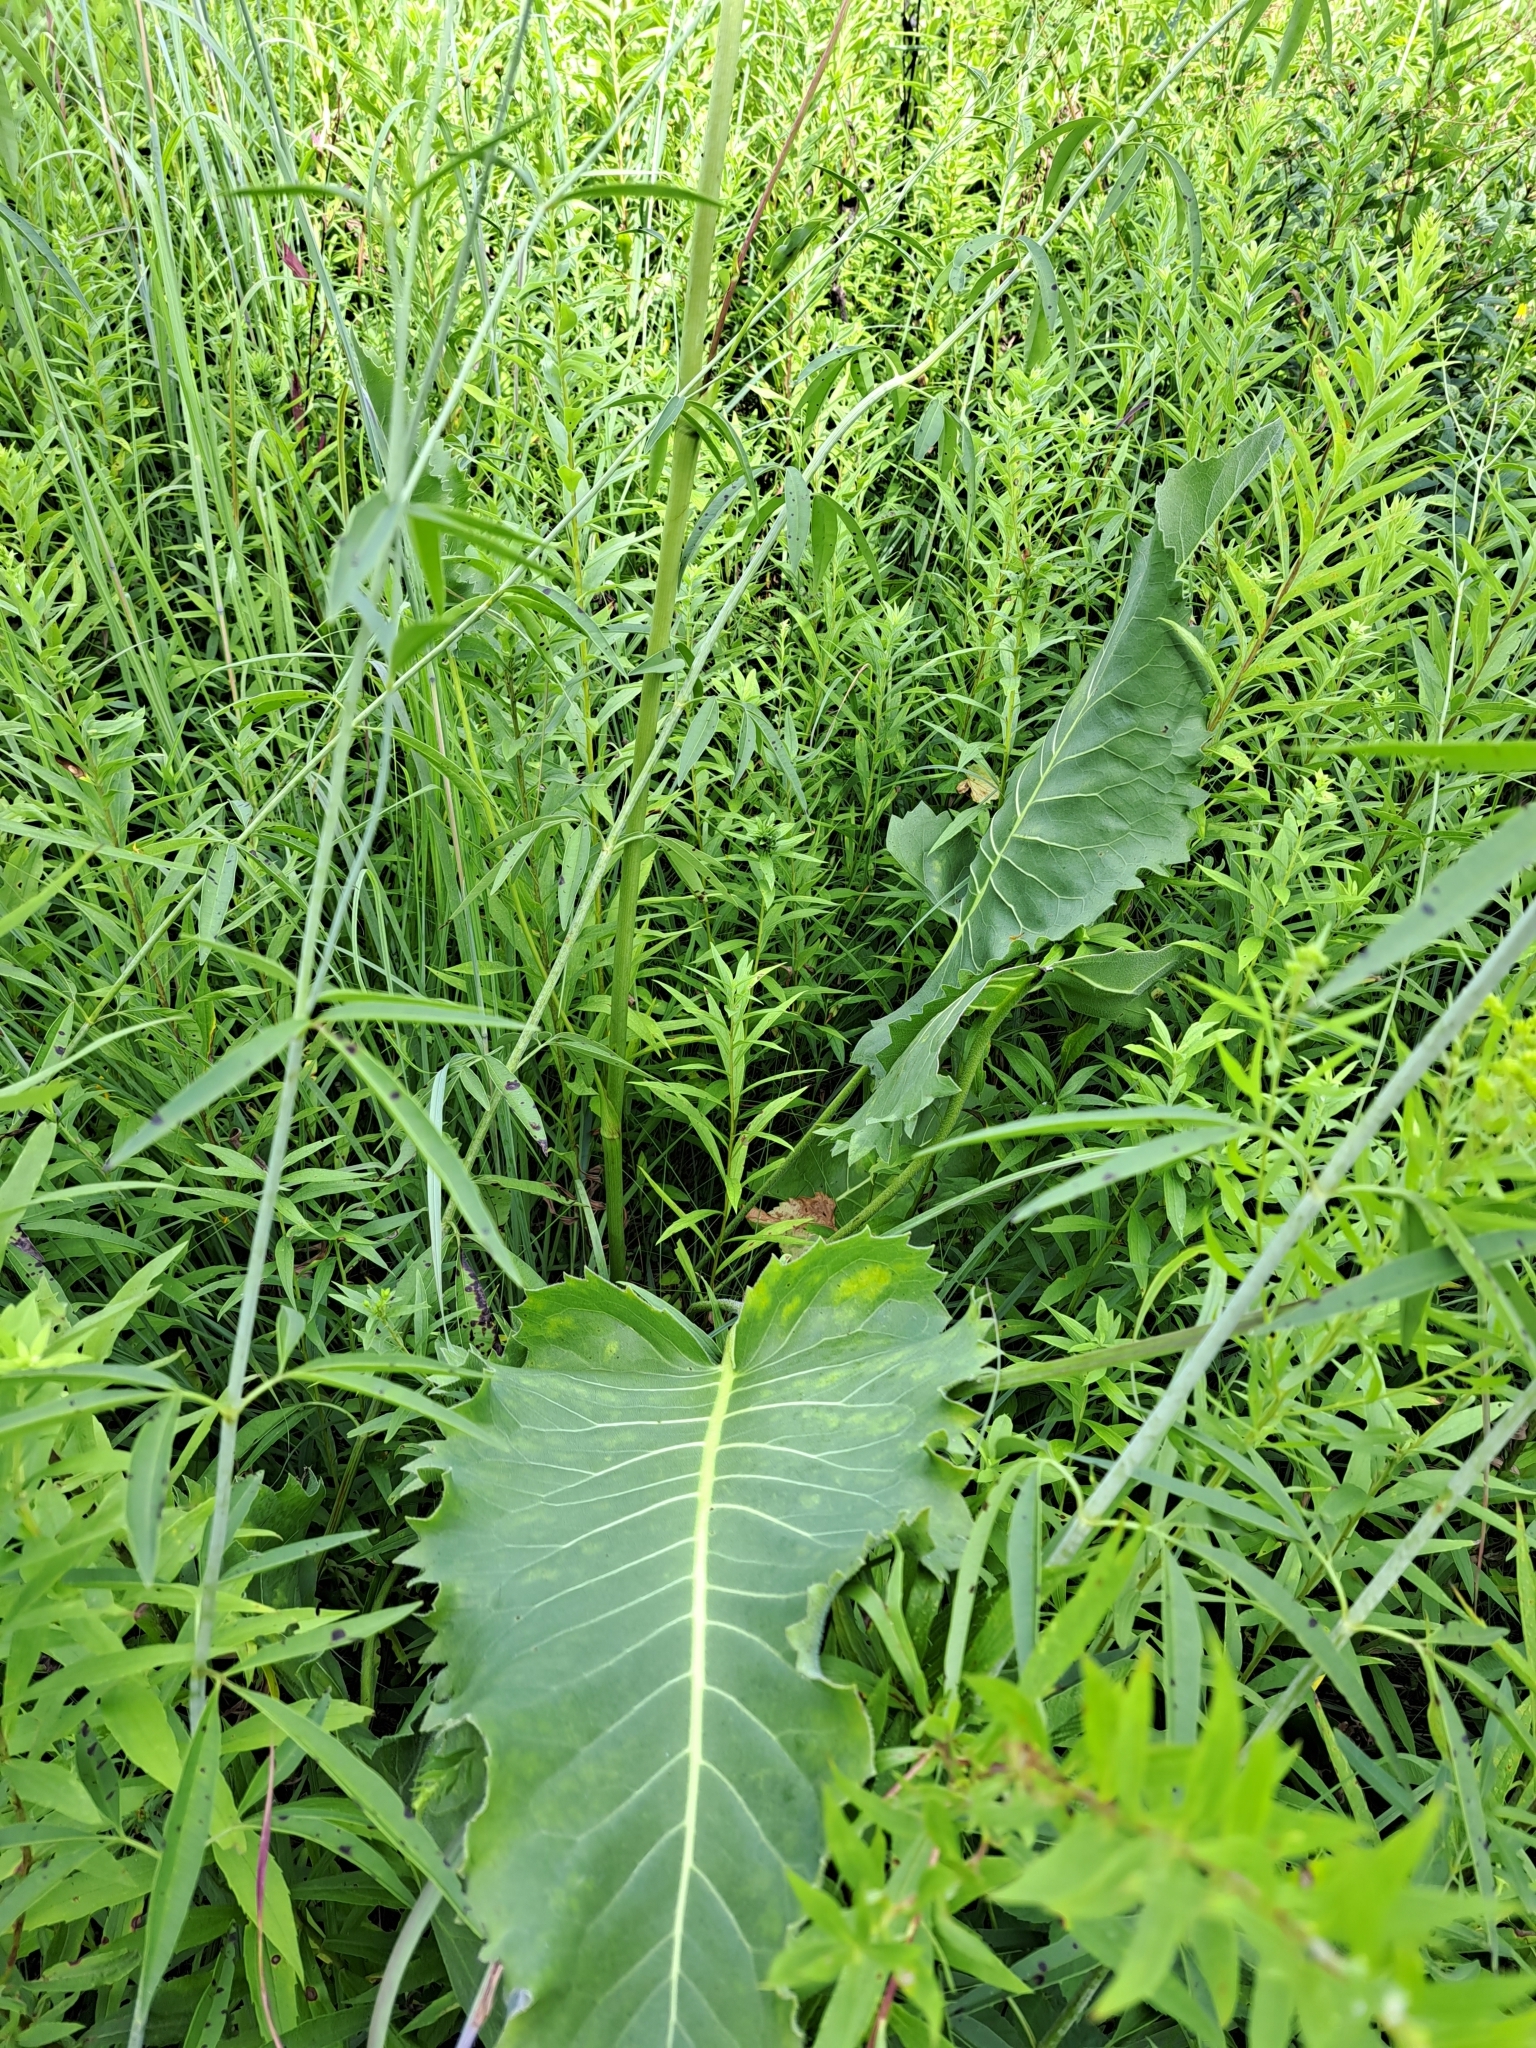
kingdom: Plantae
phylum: Tracheophyta
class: Magnoliopsida
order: Asterales
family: Asteraceae
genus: Silphium
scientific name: Silphium terebinthinaceum
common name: Basal-leaf rosinweed
